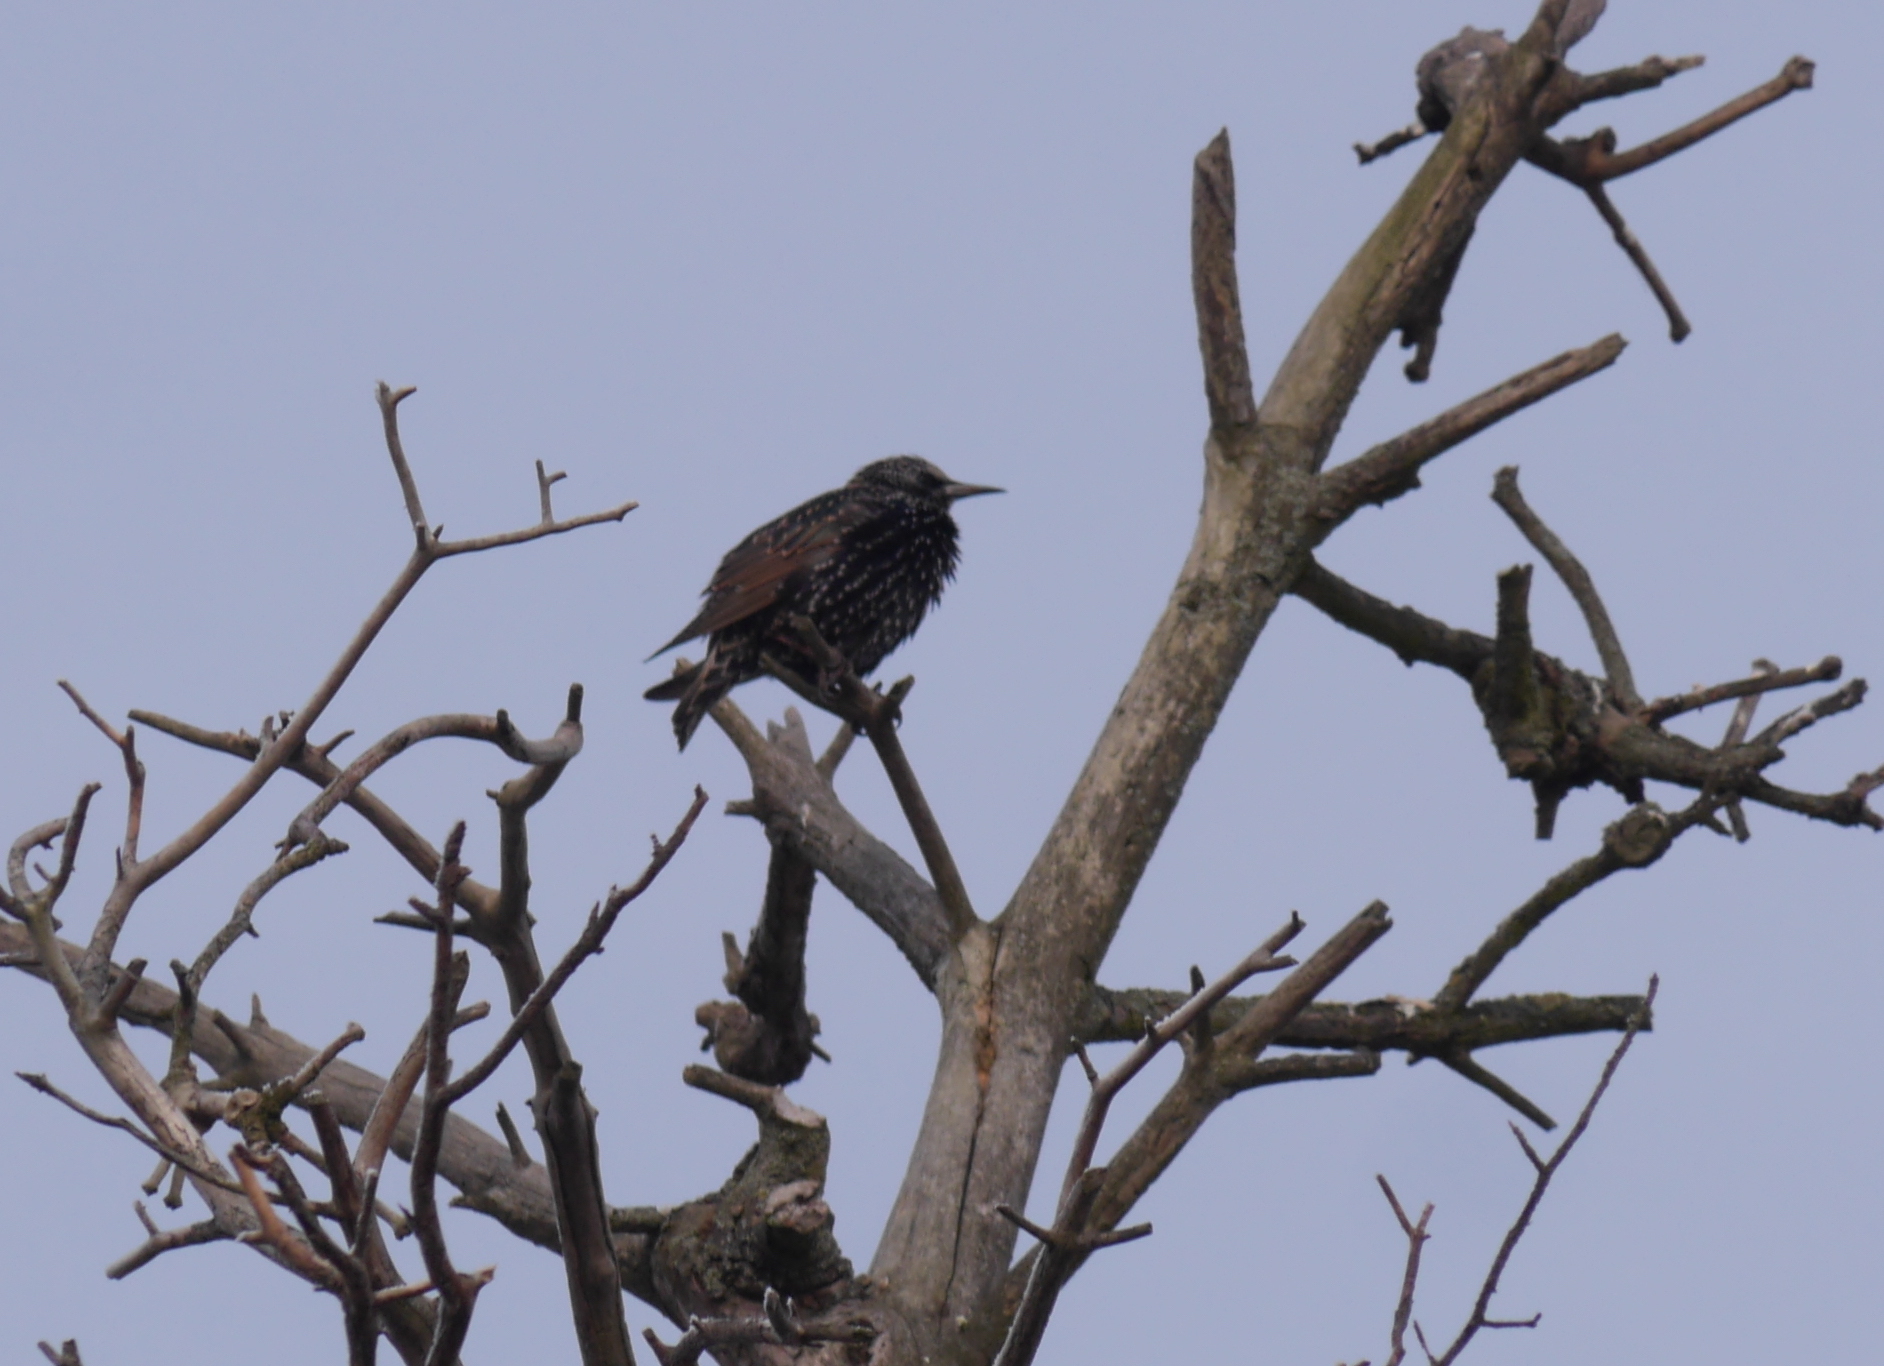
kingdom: Animalia
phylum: Chordata
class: Aves
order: Passeriformes
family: Sturnidae
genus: Sturnus
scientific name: Sturnus vulgaris
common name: Common starling
